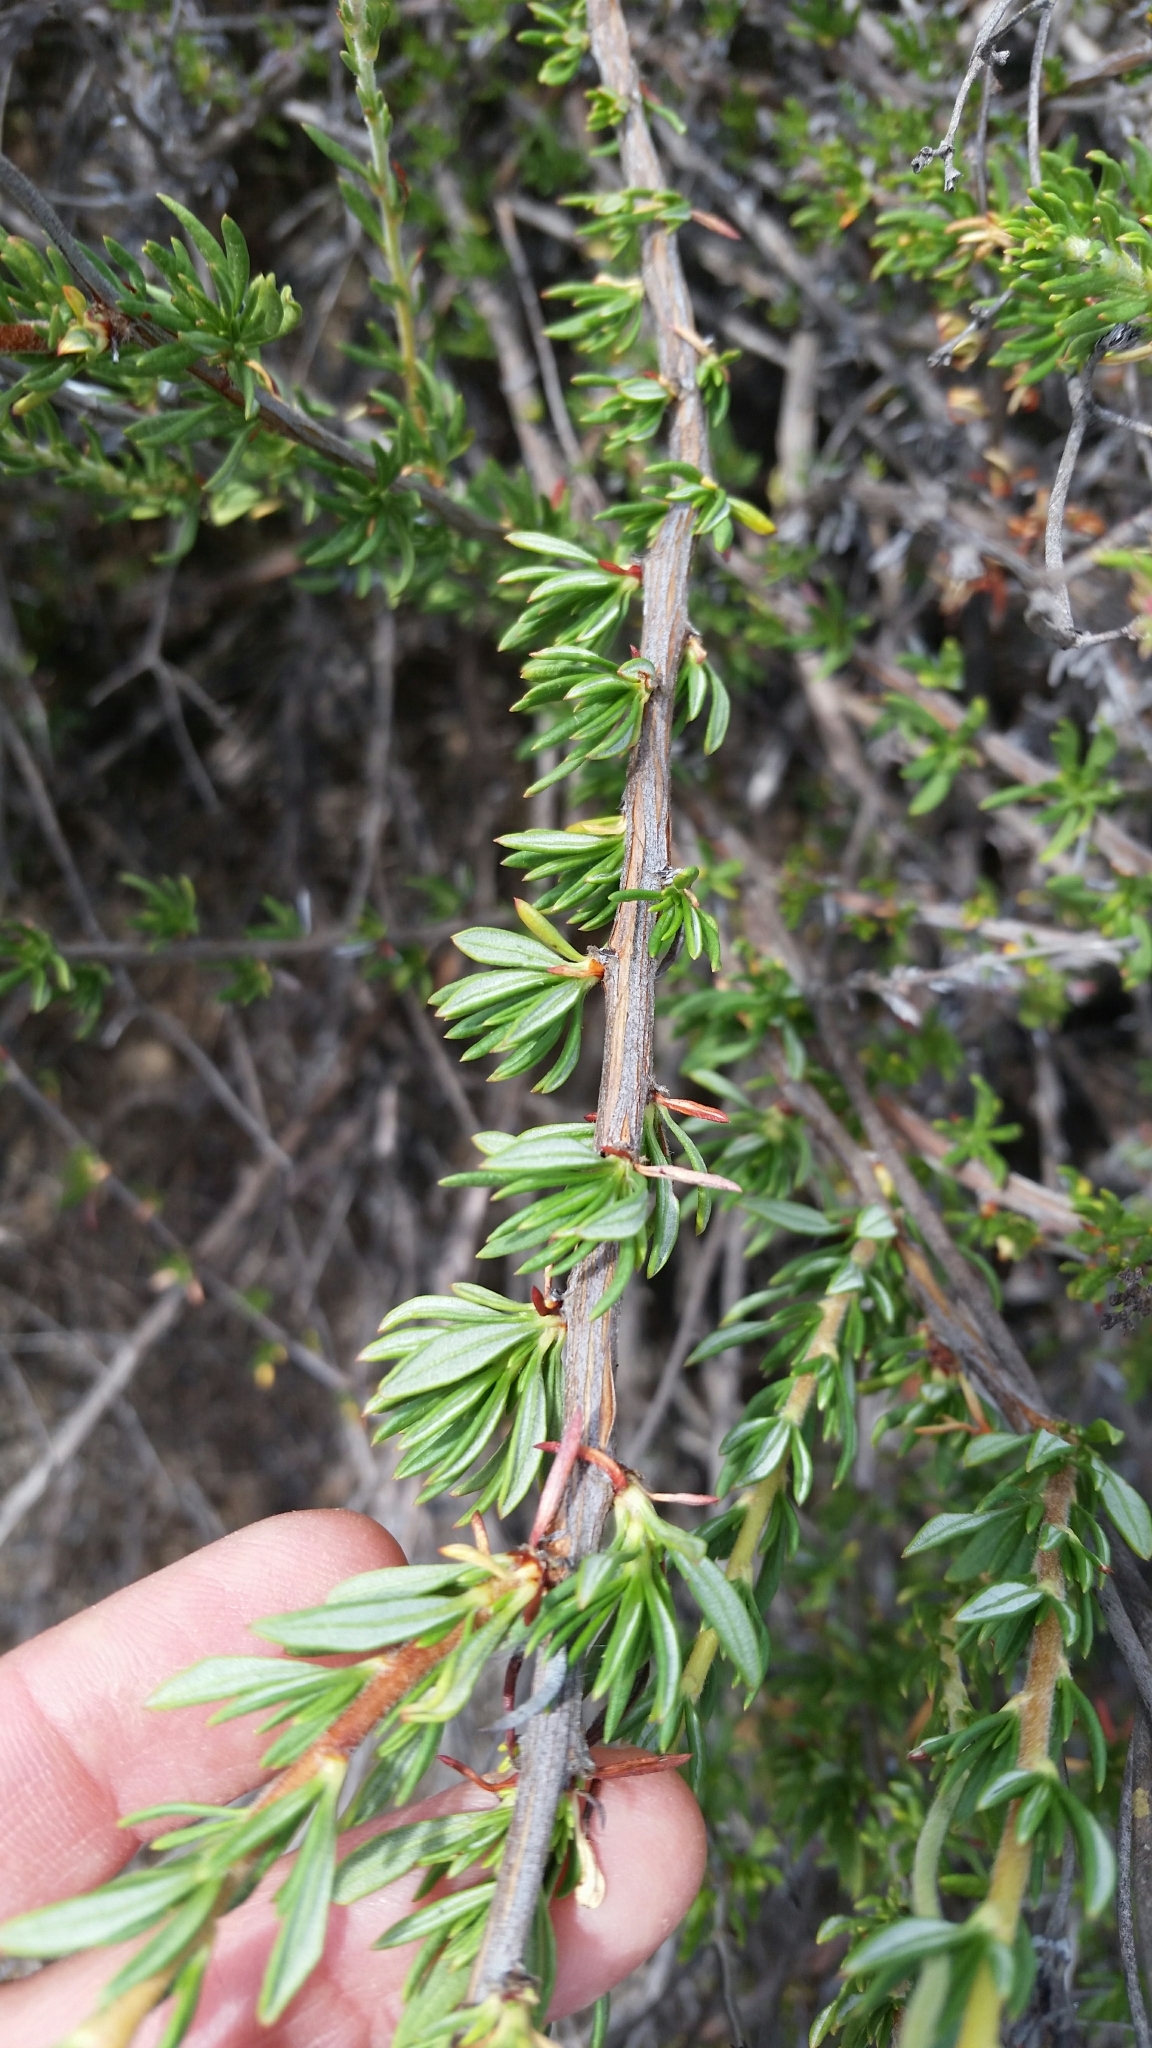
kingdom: Plantae
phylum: Tracheophyta
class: Magnoliopsida
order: Caryophyllales
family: Polygonaceae
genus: Eriogonum
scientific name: Eriogonum fasciculatum
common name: California wild buckwheat
